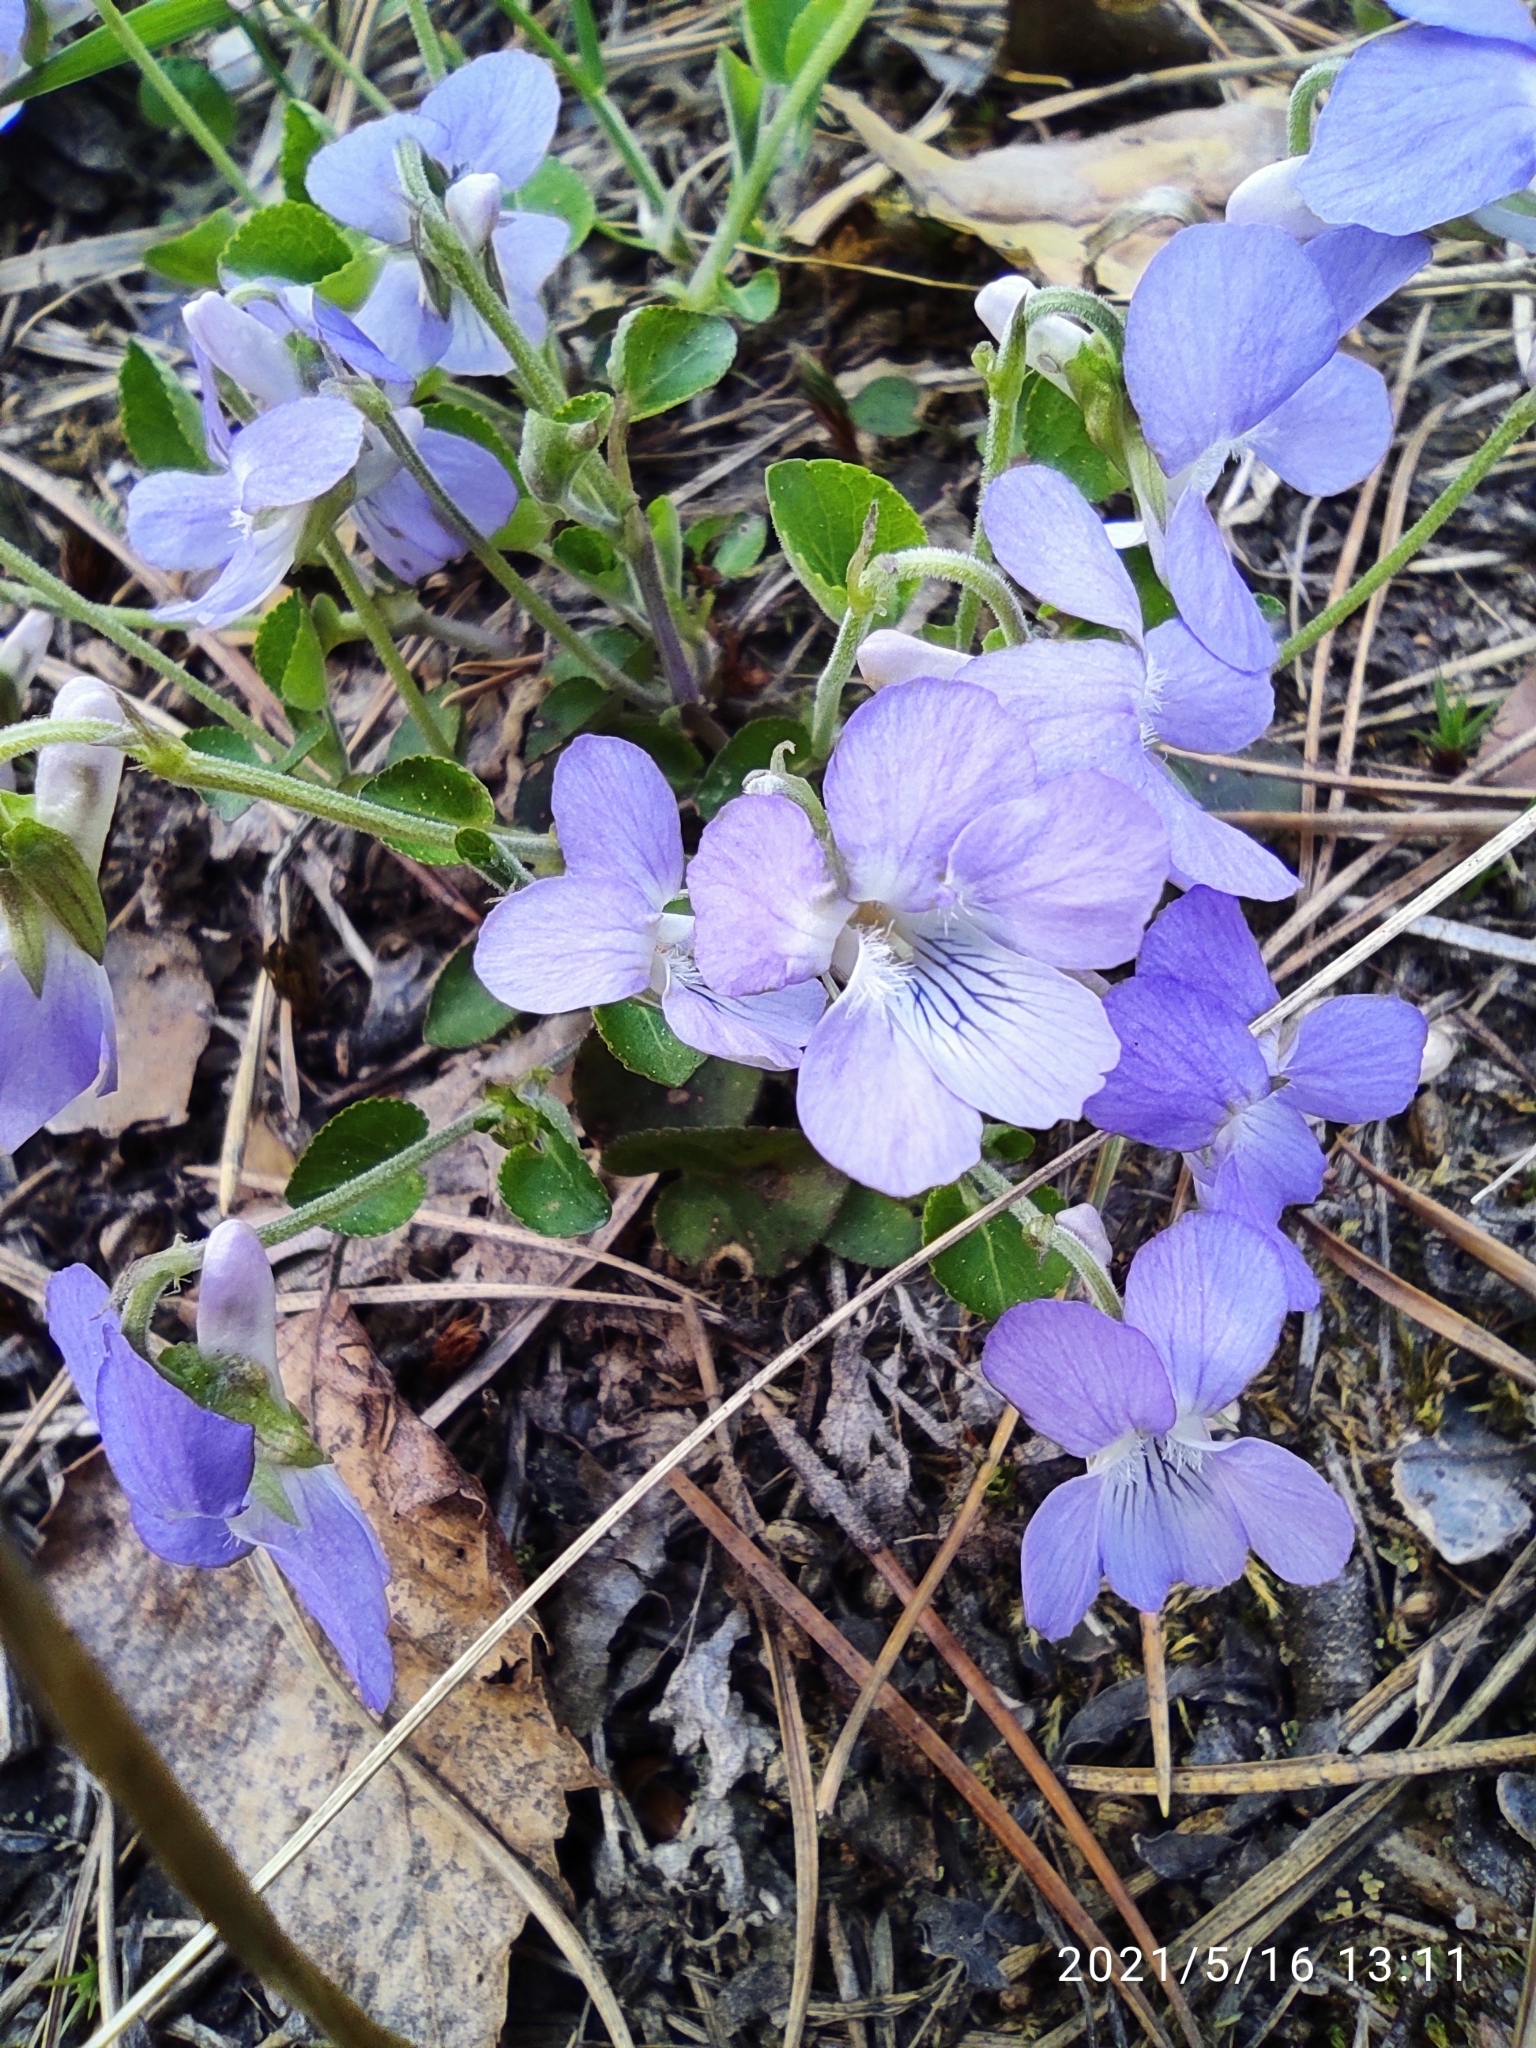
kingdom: Plantae
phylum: Tracheophyta
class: Magnoliopsida
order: Malpighiales
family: Violaceae
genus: Viola
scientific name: Viola rupestris
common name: Teesdale violet
